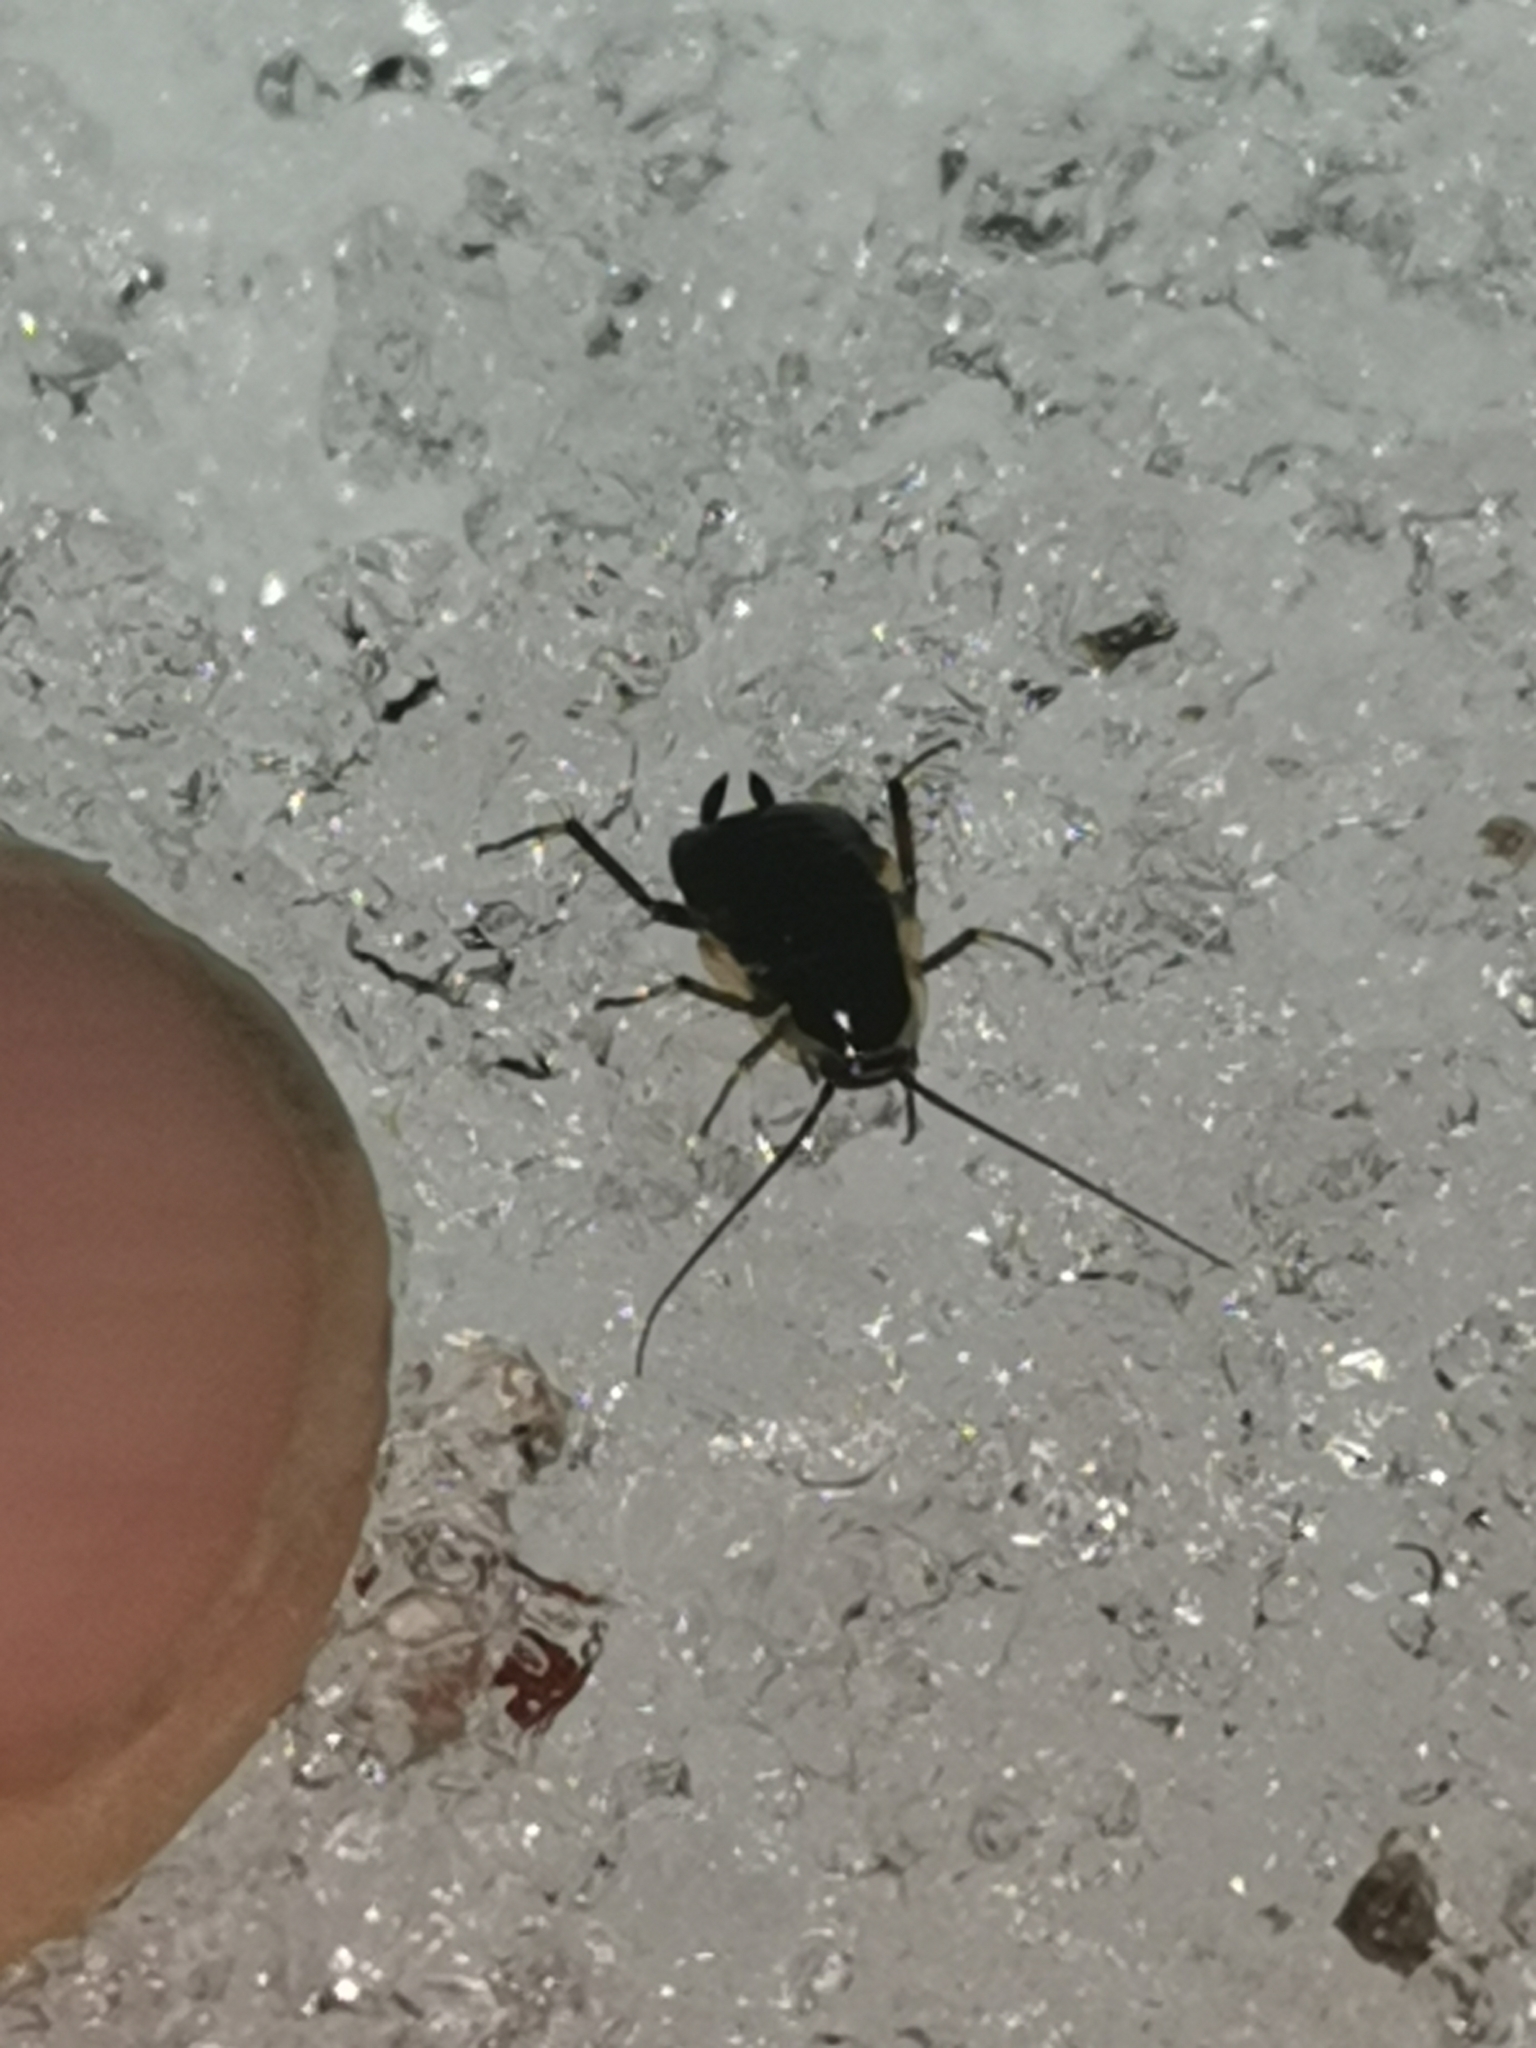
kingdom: Animalia
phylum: Arthropoda
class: Insecta
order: Blattodea
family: Ectobiidae
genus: Ectobius
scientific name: Ectobius sylvestris
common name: Forest cockroach
